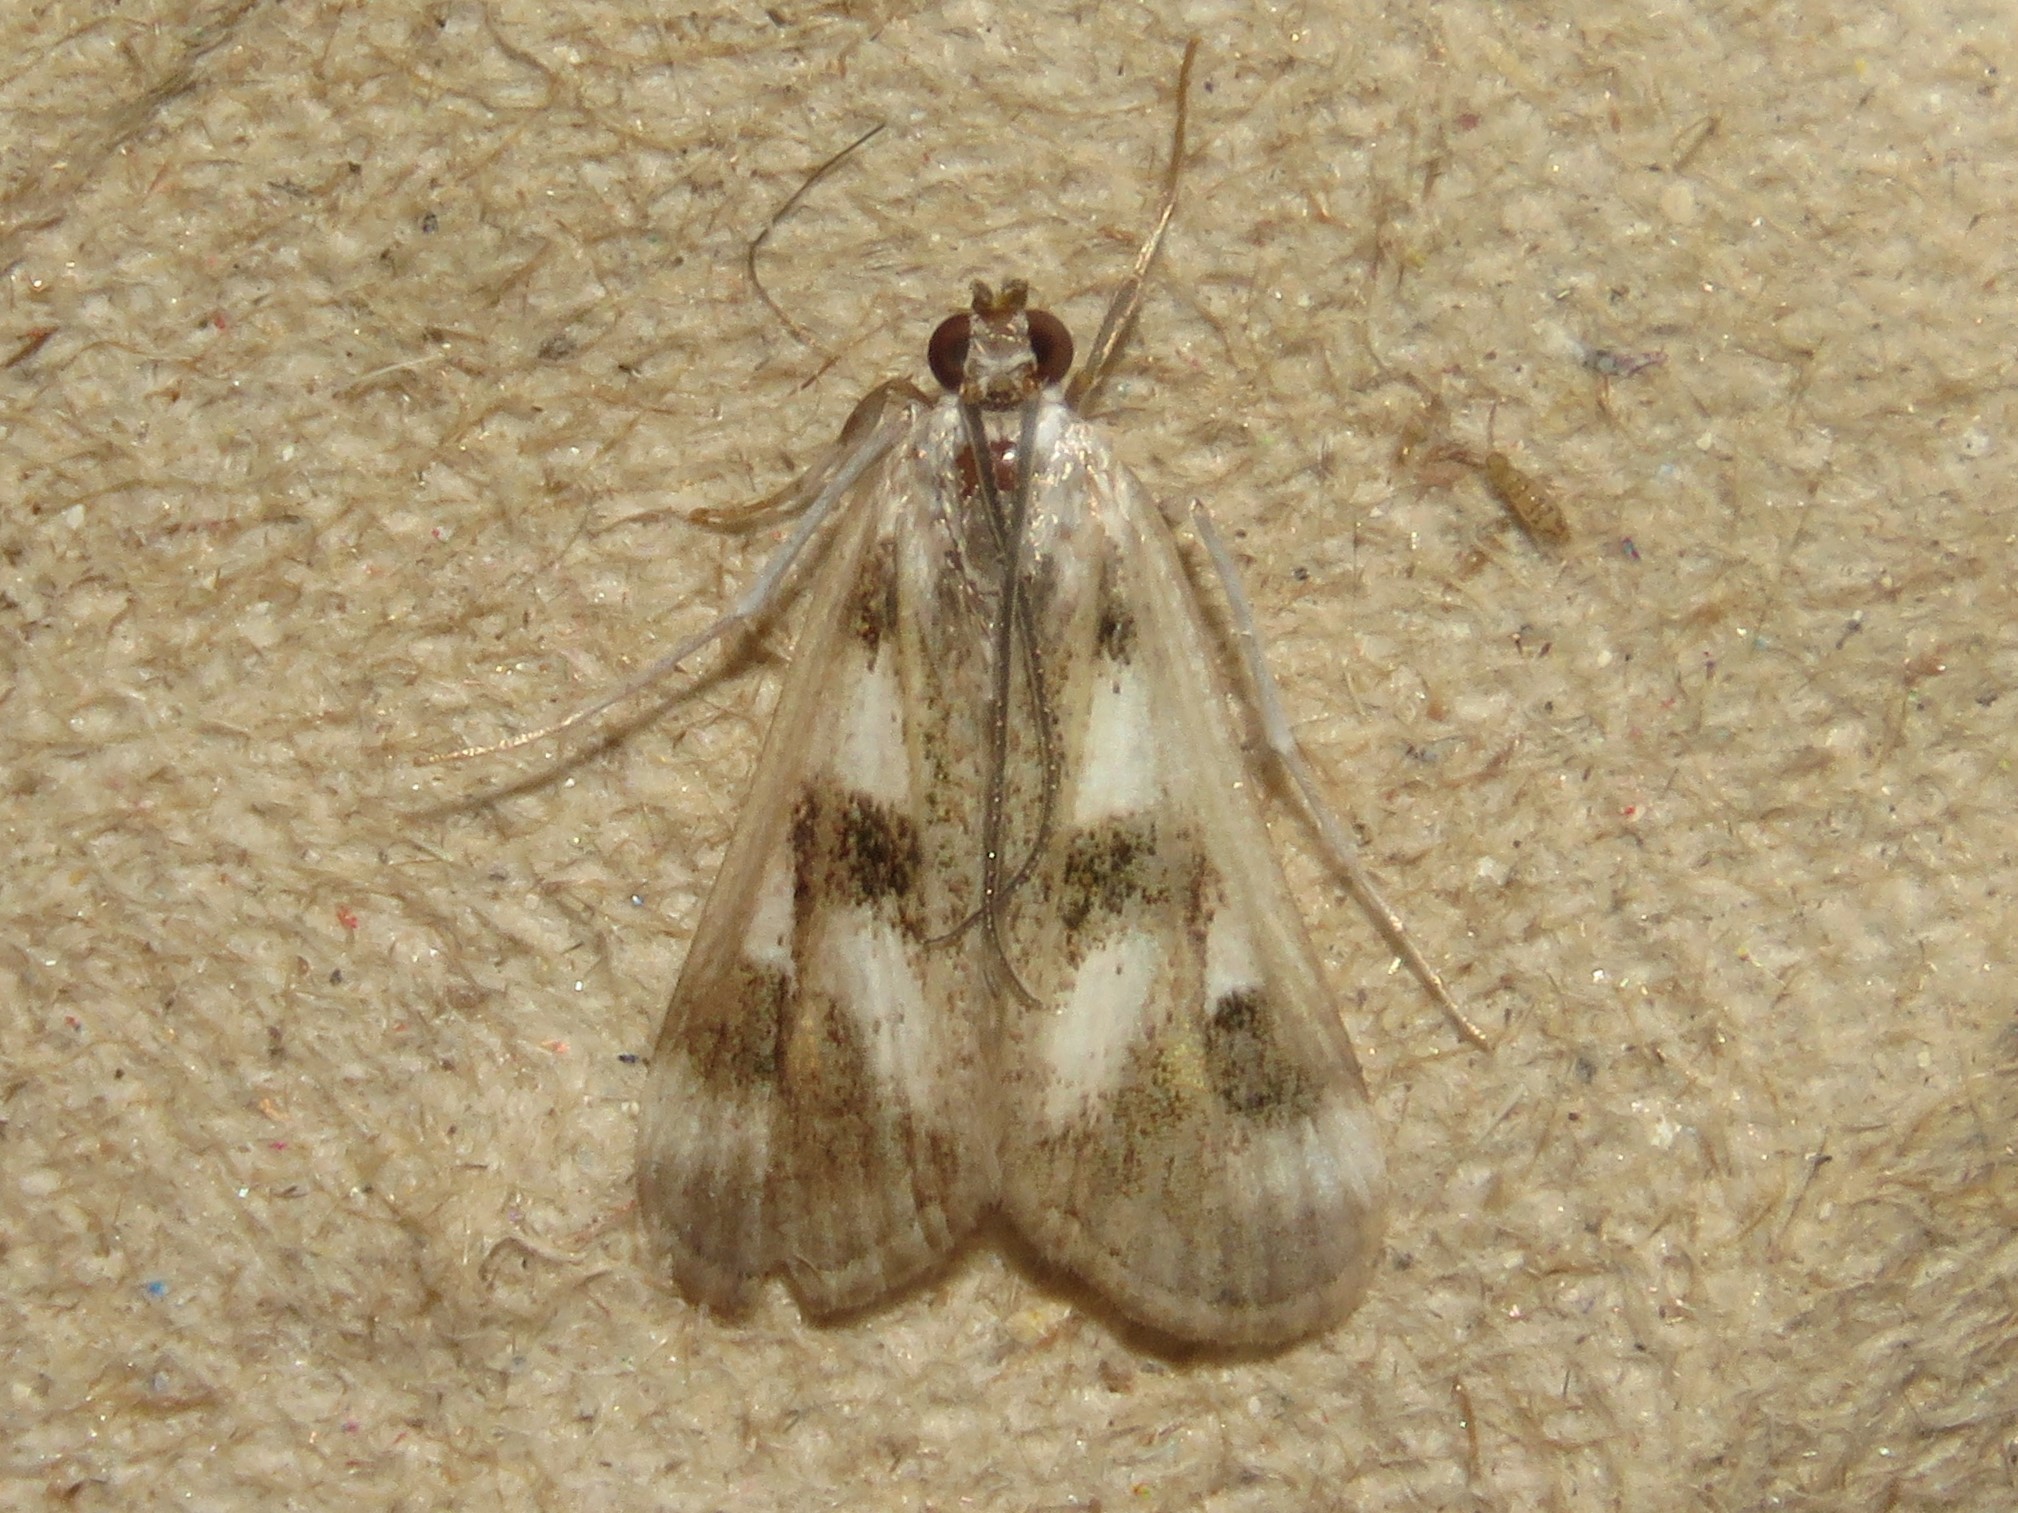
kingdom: Animalia
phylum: Arthropoda
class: Insecta
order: Lepidoptera
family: Crambidae
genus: Parapoynx
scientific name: Parapoynx maculalis
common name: Polymorphic pondweed moth
